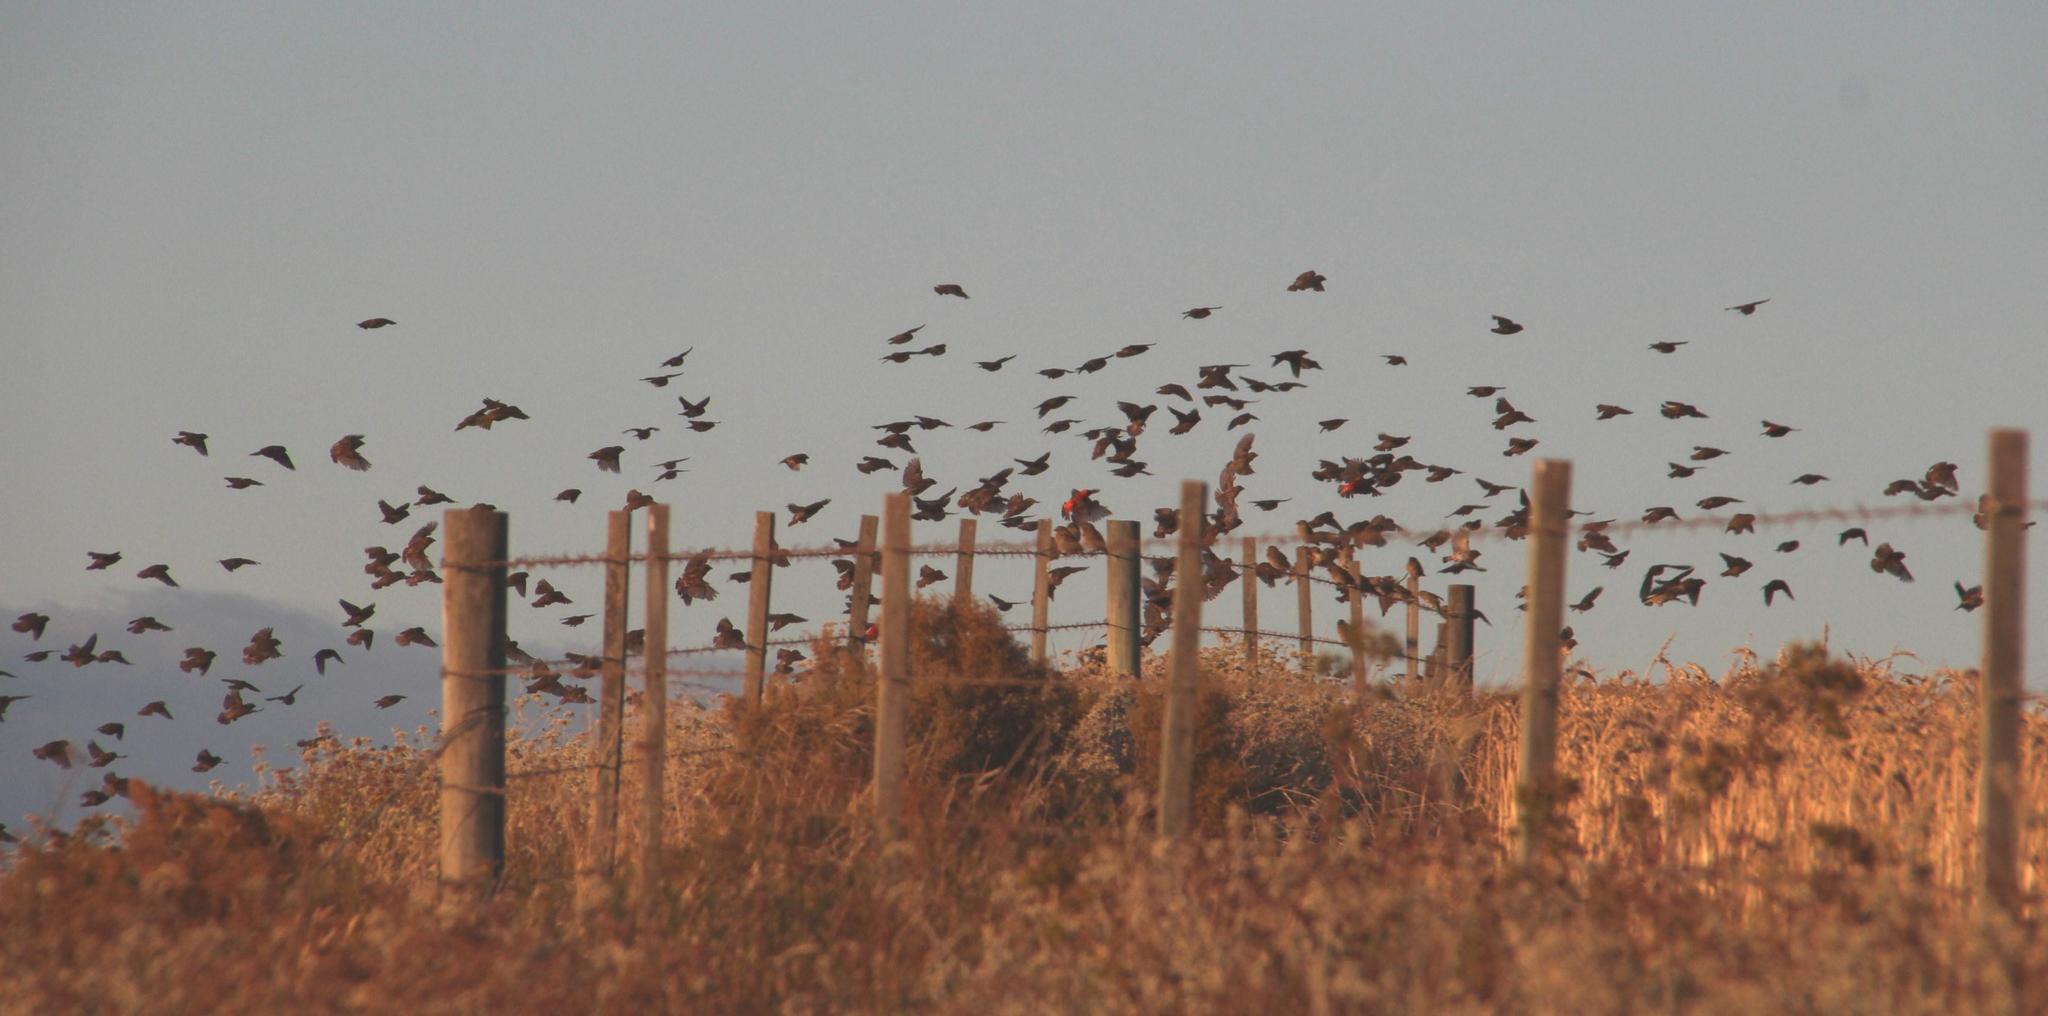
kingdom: Animalia
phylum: Chordata
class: Aves
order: Passeriformes
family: Ploceidae
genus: Euplectes
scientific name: Euplectes orix
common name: Southern red bishop
